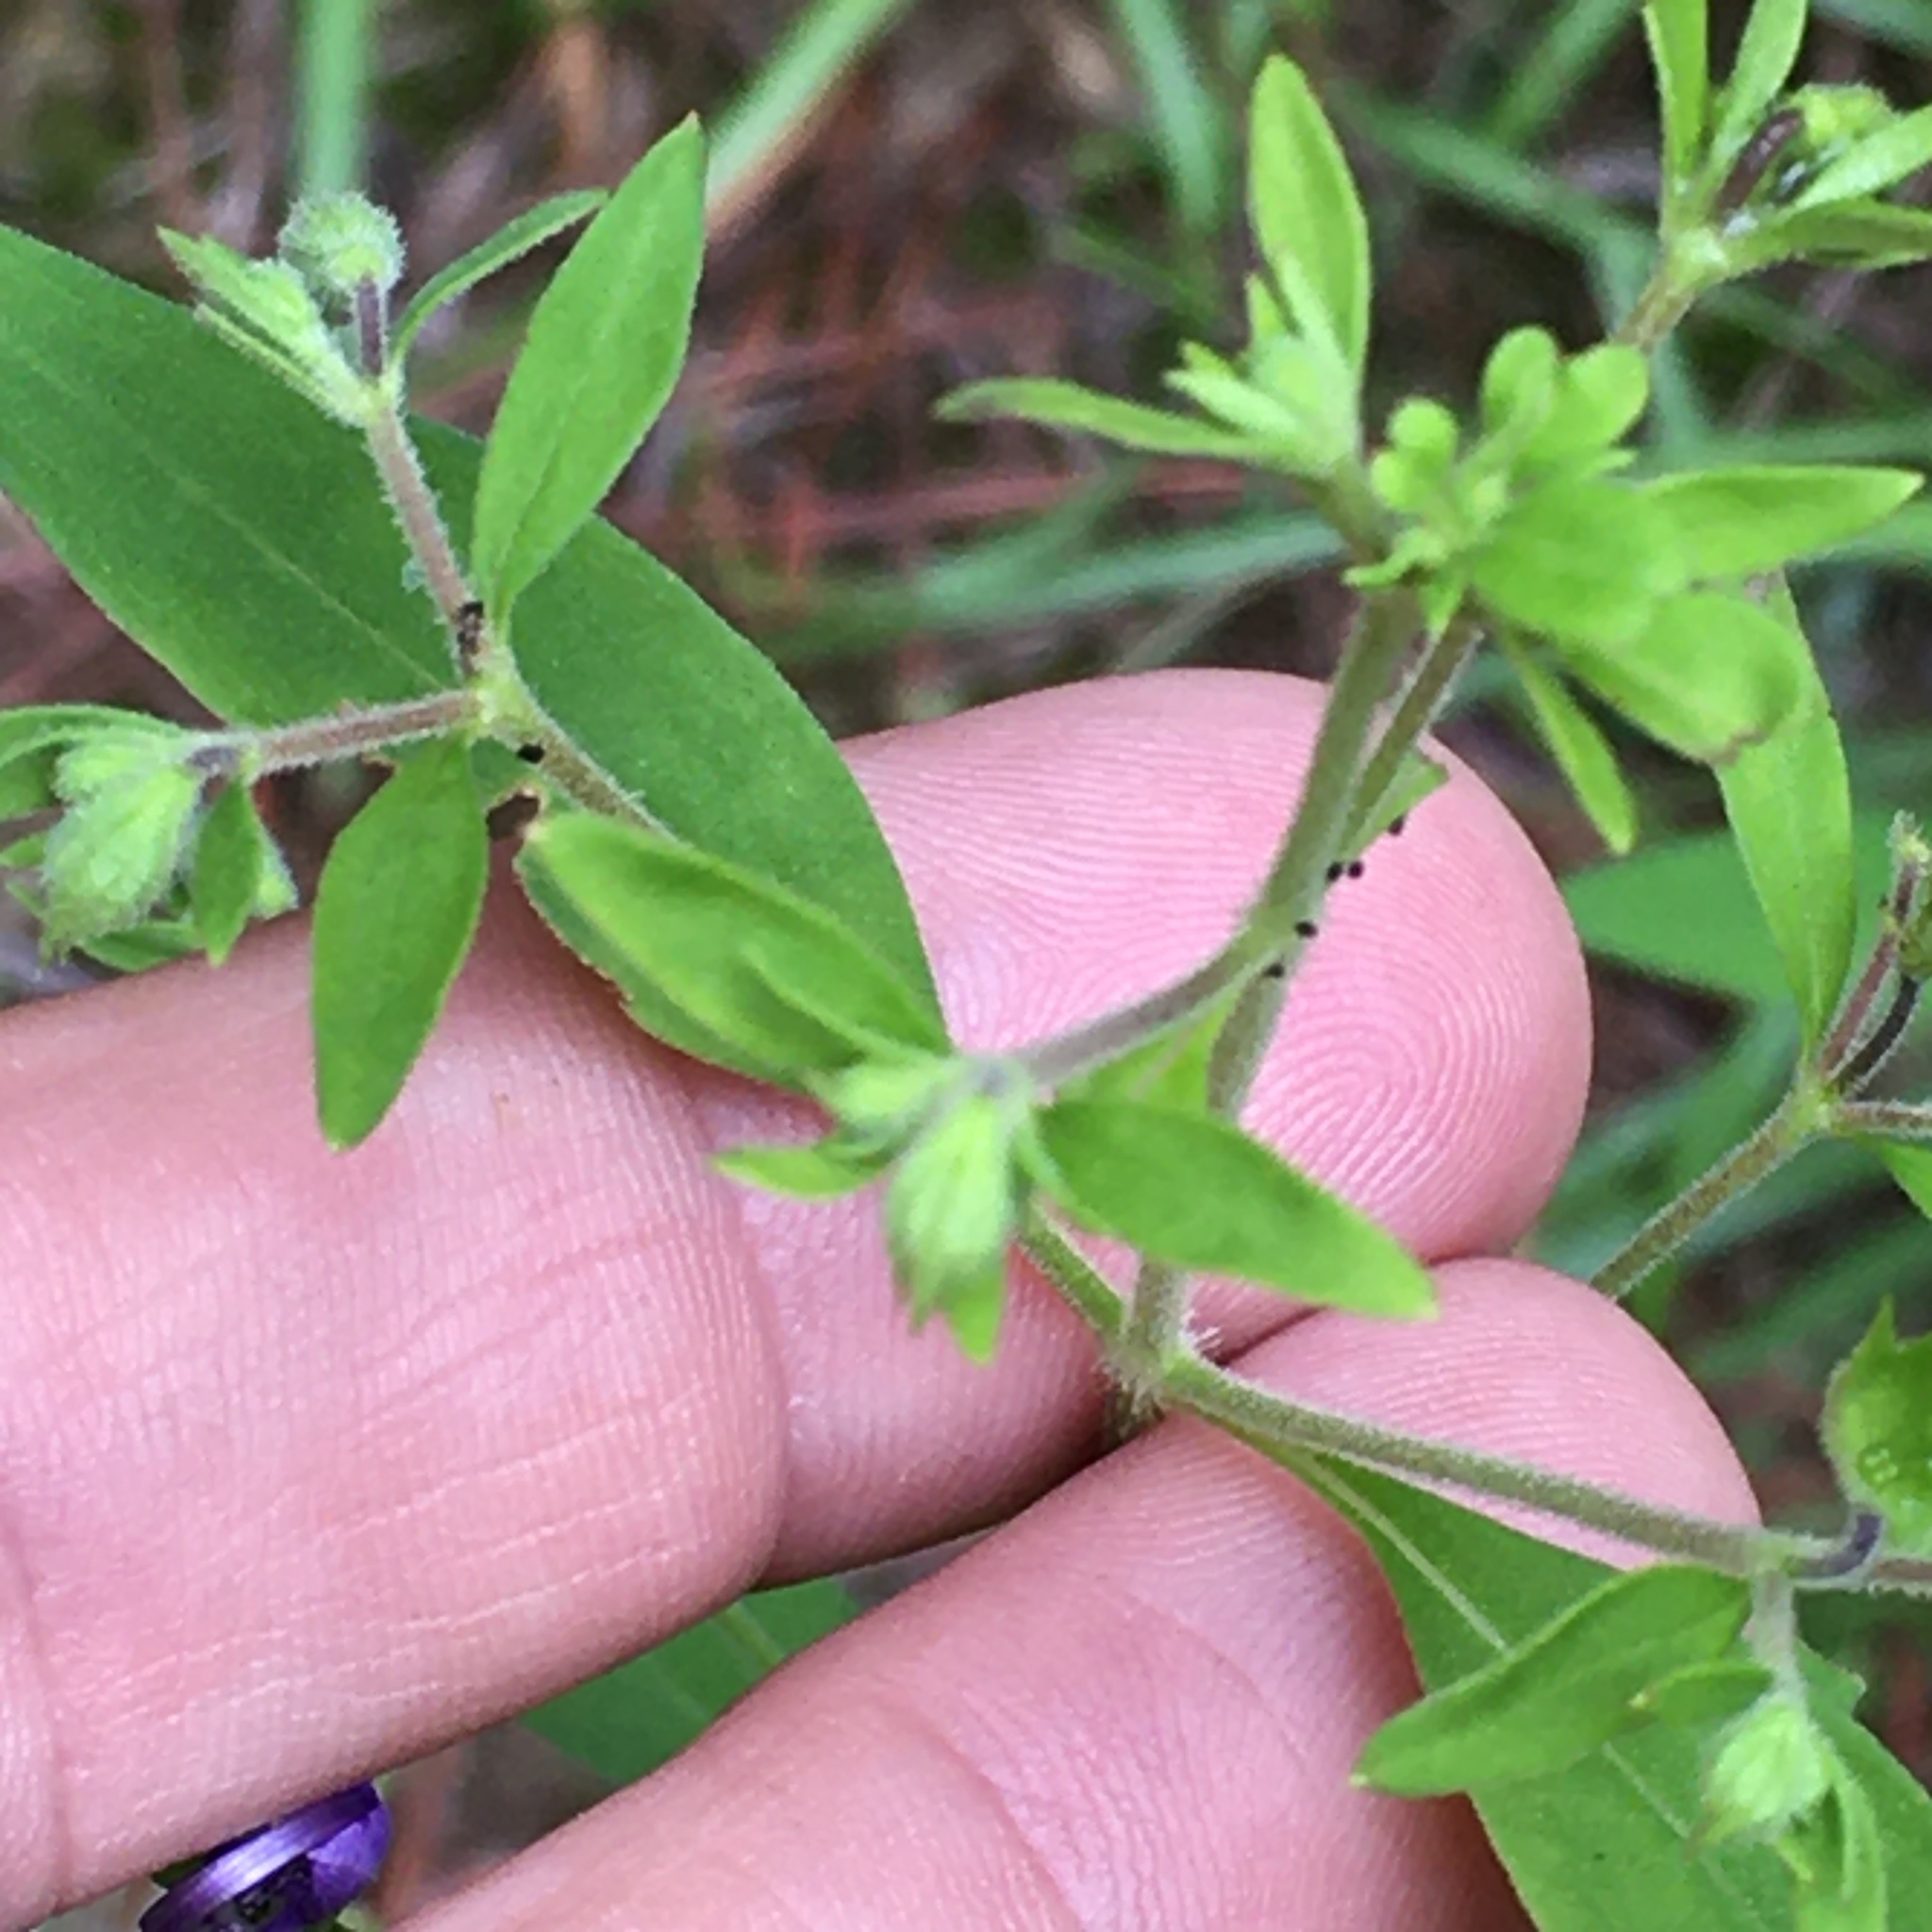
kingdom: Plantae
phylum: Tracheophyta
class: Magnoliopsida
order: Lamiales
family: Lamiaceae
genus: Trichostema
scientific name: Trichostema dichotomum
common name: Bastard pennyroyal
